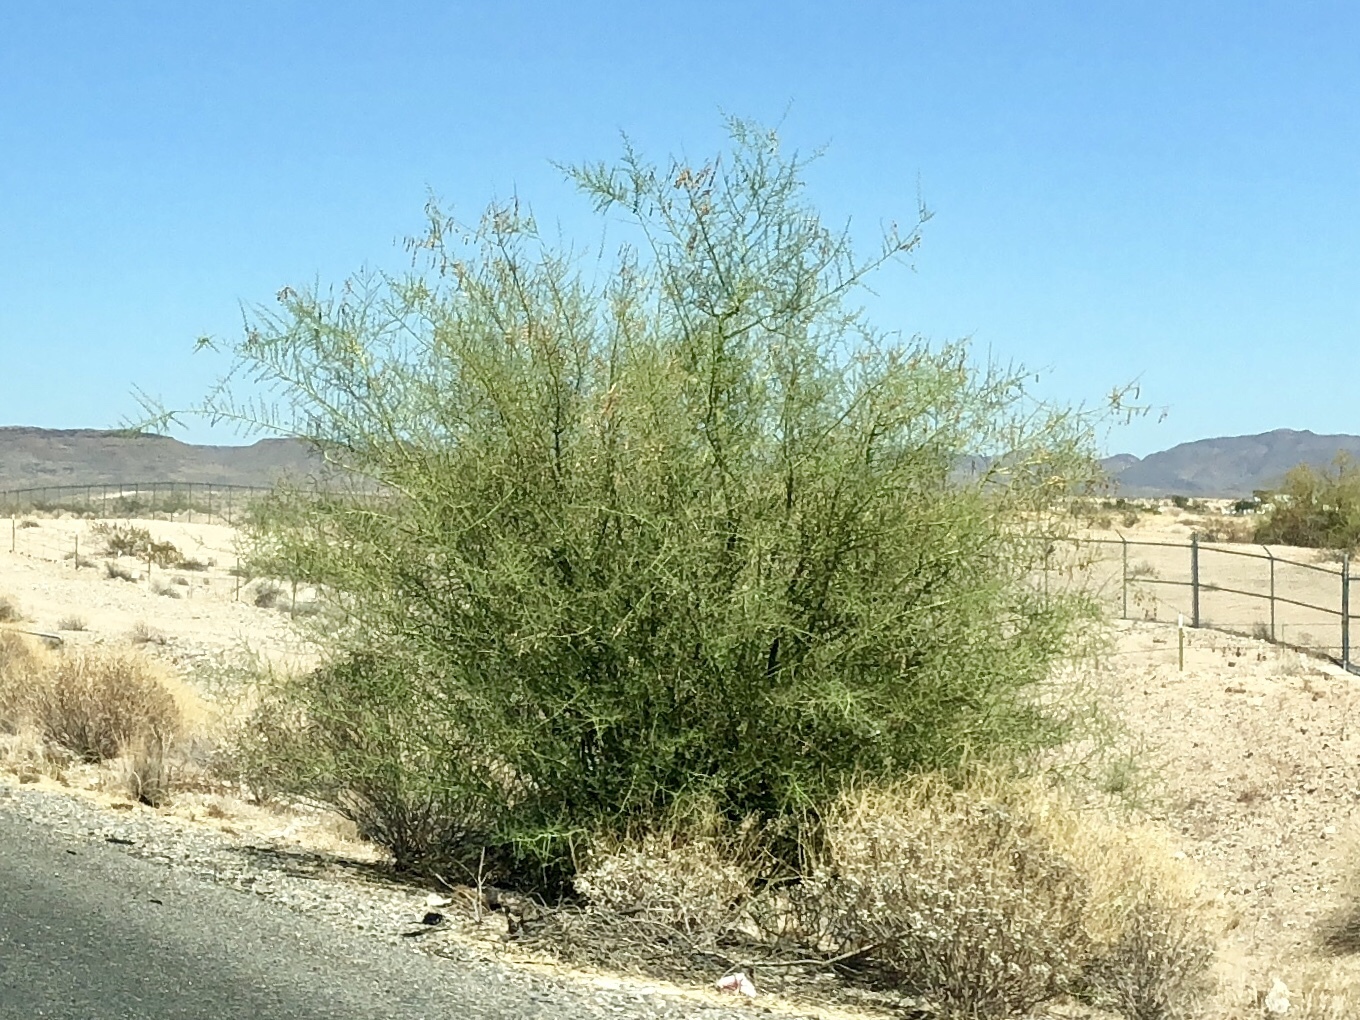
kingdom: Plantae
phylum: Tracheophyta
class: Magnoliopsida
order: Fabales
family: Fabaceae
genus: Parkinsonia
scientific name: Parkinsonia microphylla
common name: Yellow paloverde
